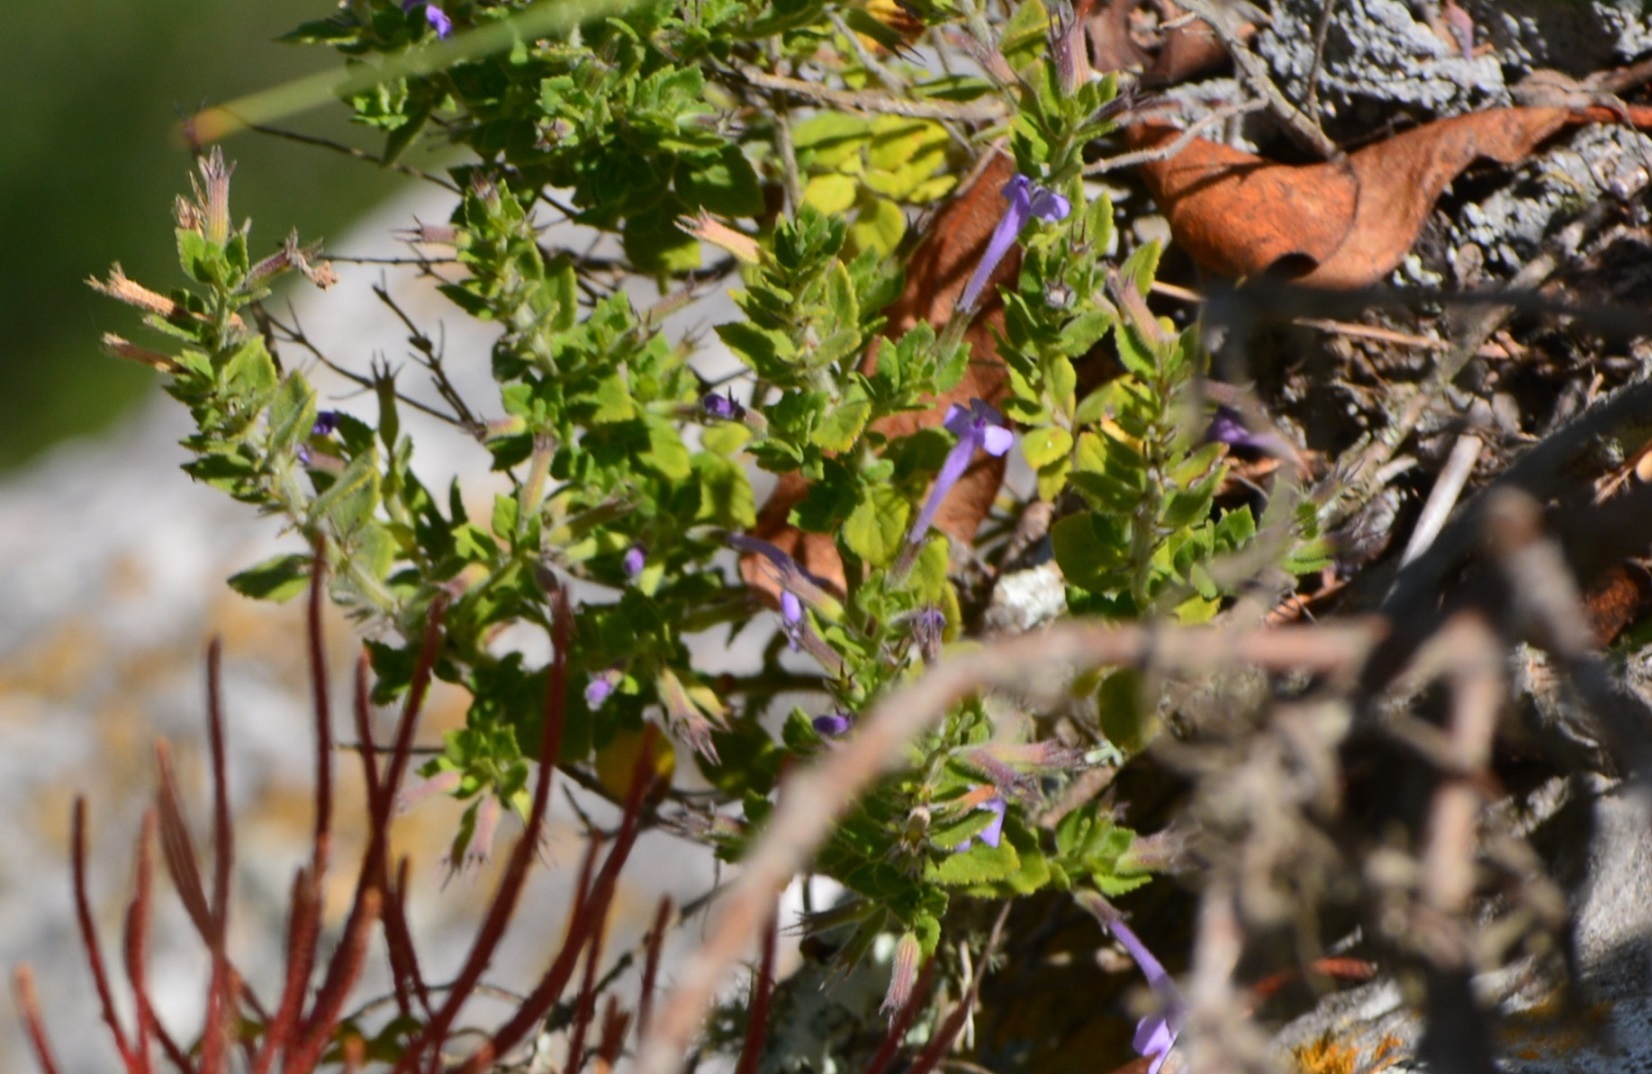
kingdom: Plantae
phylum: Tracheophyta
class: Magnoliopsida
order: Lamiales
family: Lamiaceae
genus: Hedeoma
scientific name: Hedeoma costata
